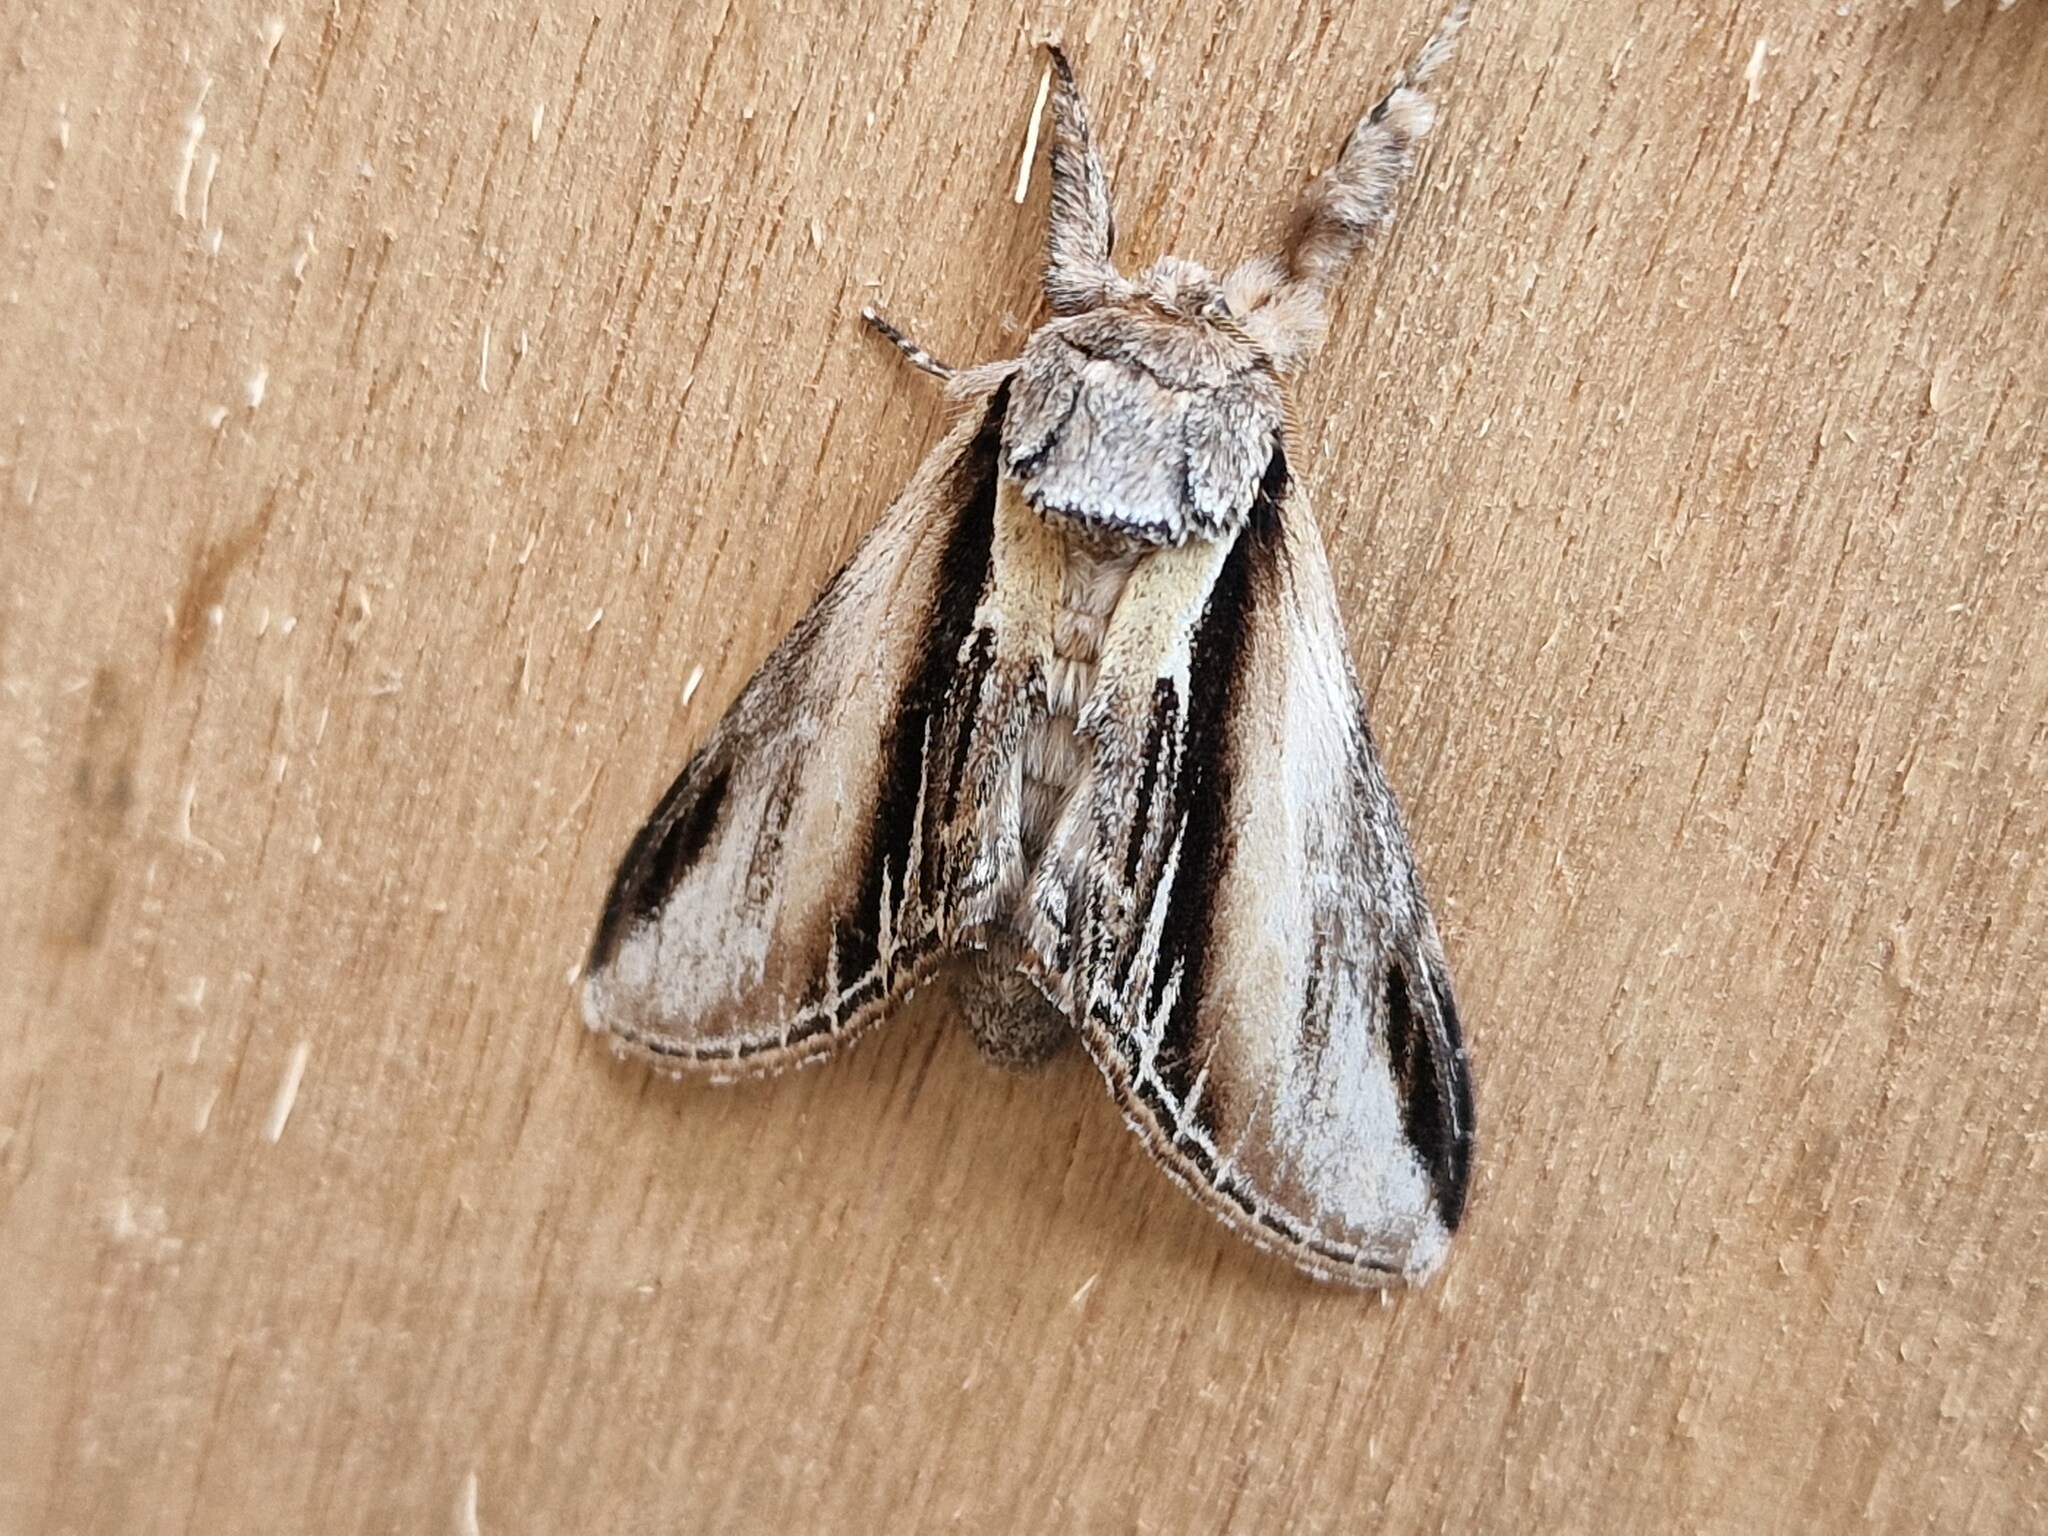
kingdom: Animalia
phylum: Arthropoda
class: Insecta
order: Lepidoptera
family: Notodontidae
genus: Pheosia
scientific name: Pheosia tremula
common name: Swallow prominent
